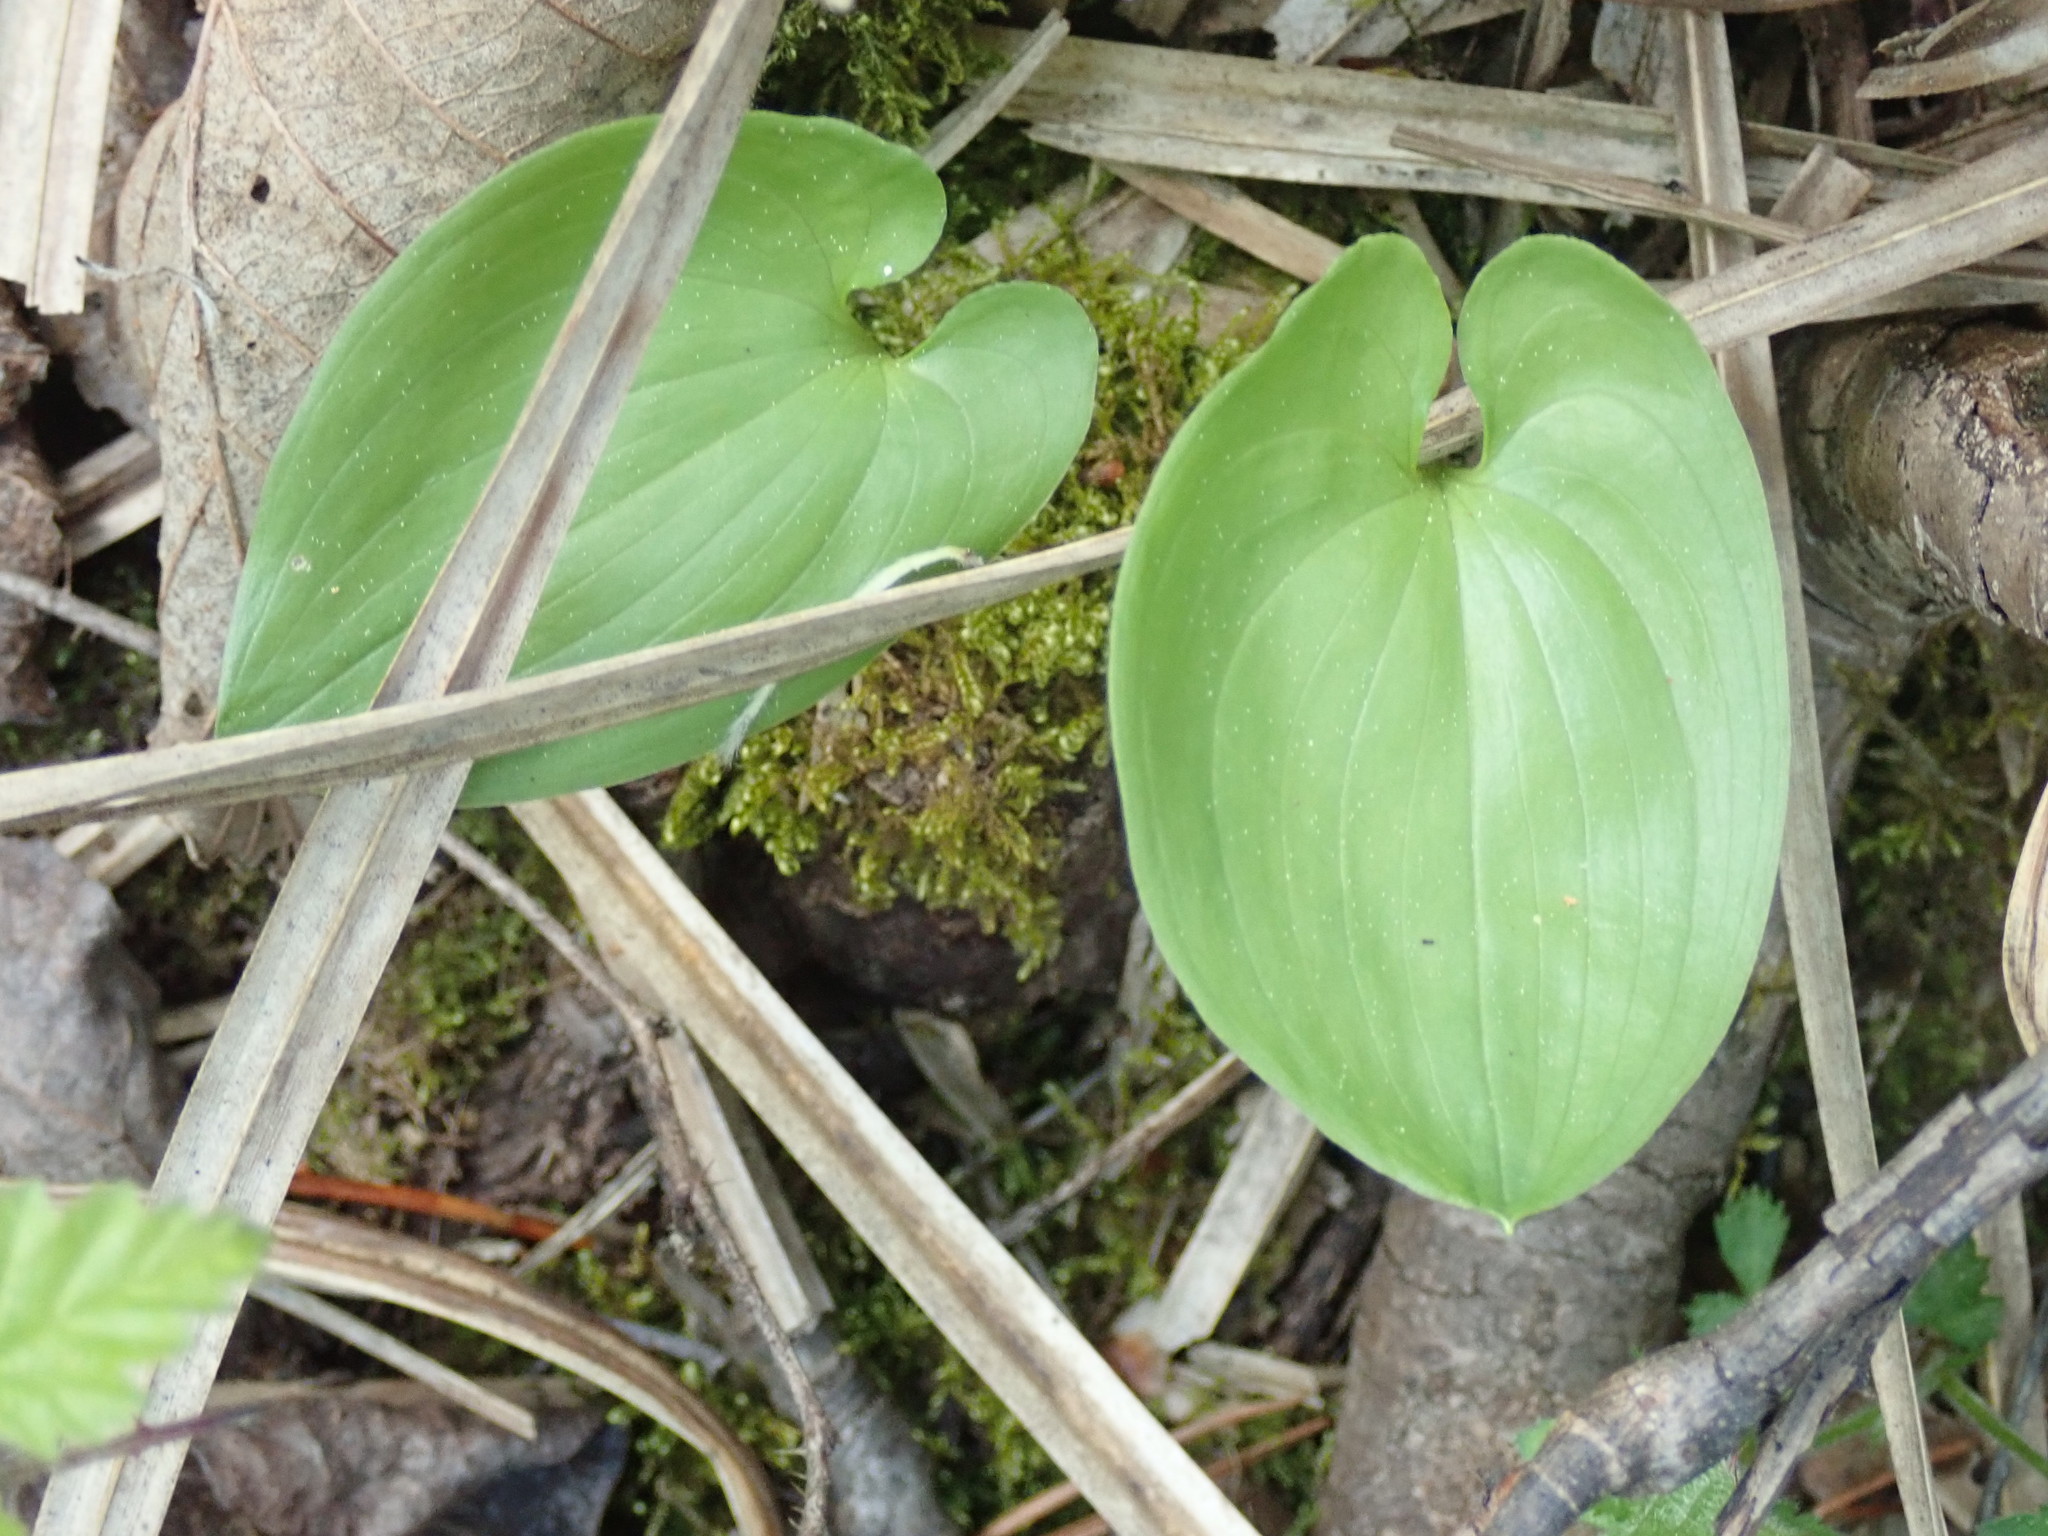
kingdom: Plantae
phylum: Tracheophyta
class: Liliopsida
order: Asparagales
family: Asparagaceae
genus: Maianthemum
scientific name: Maianthemum dilatatum
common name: False lily-of-the-valley
